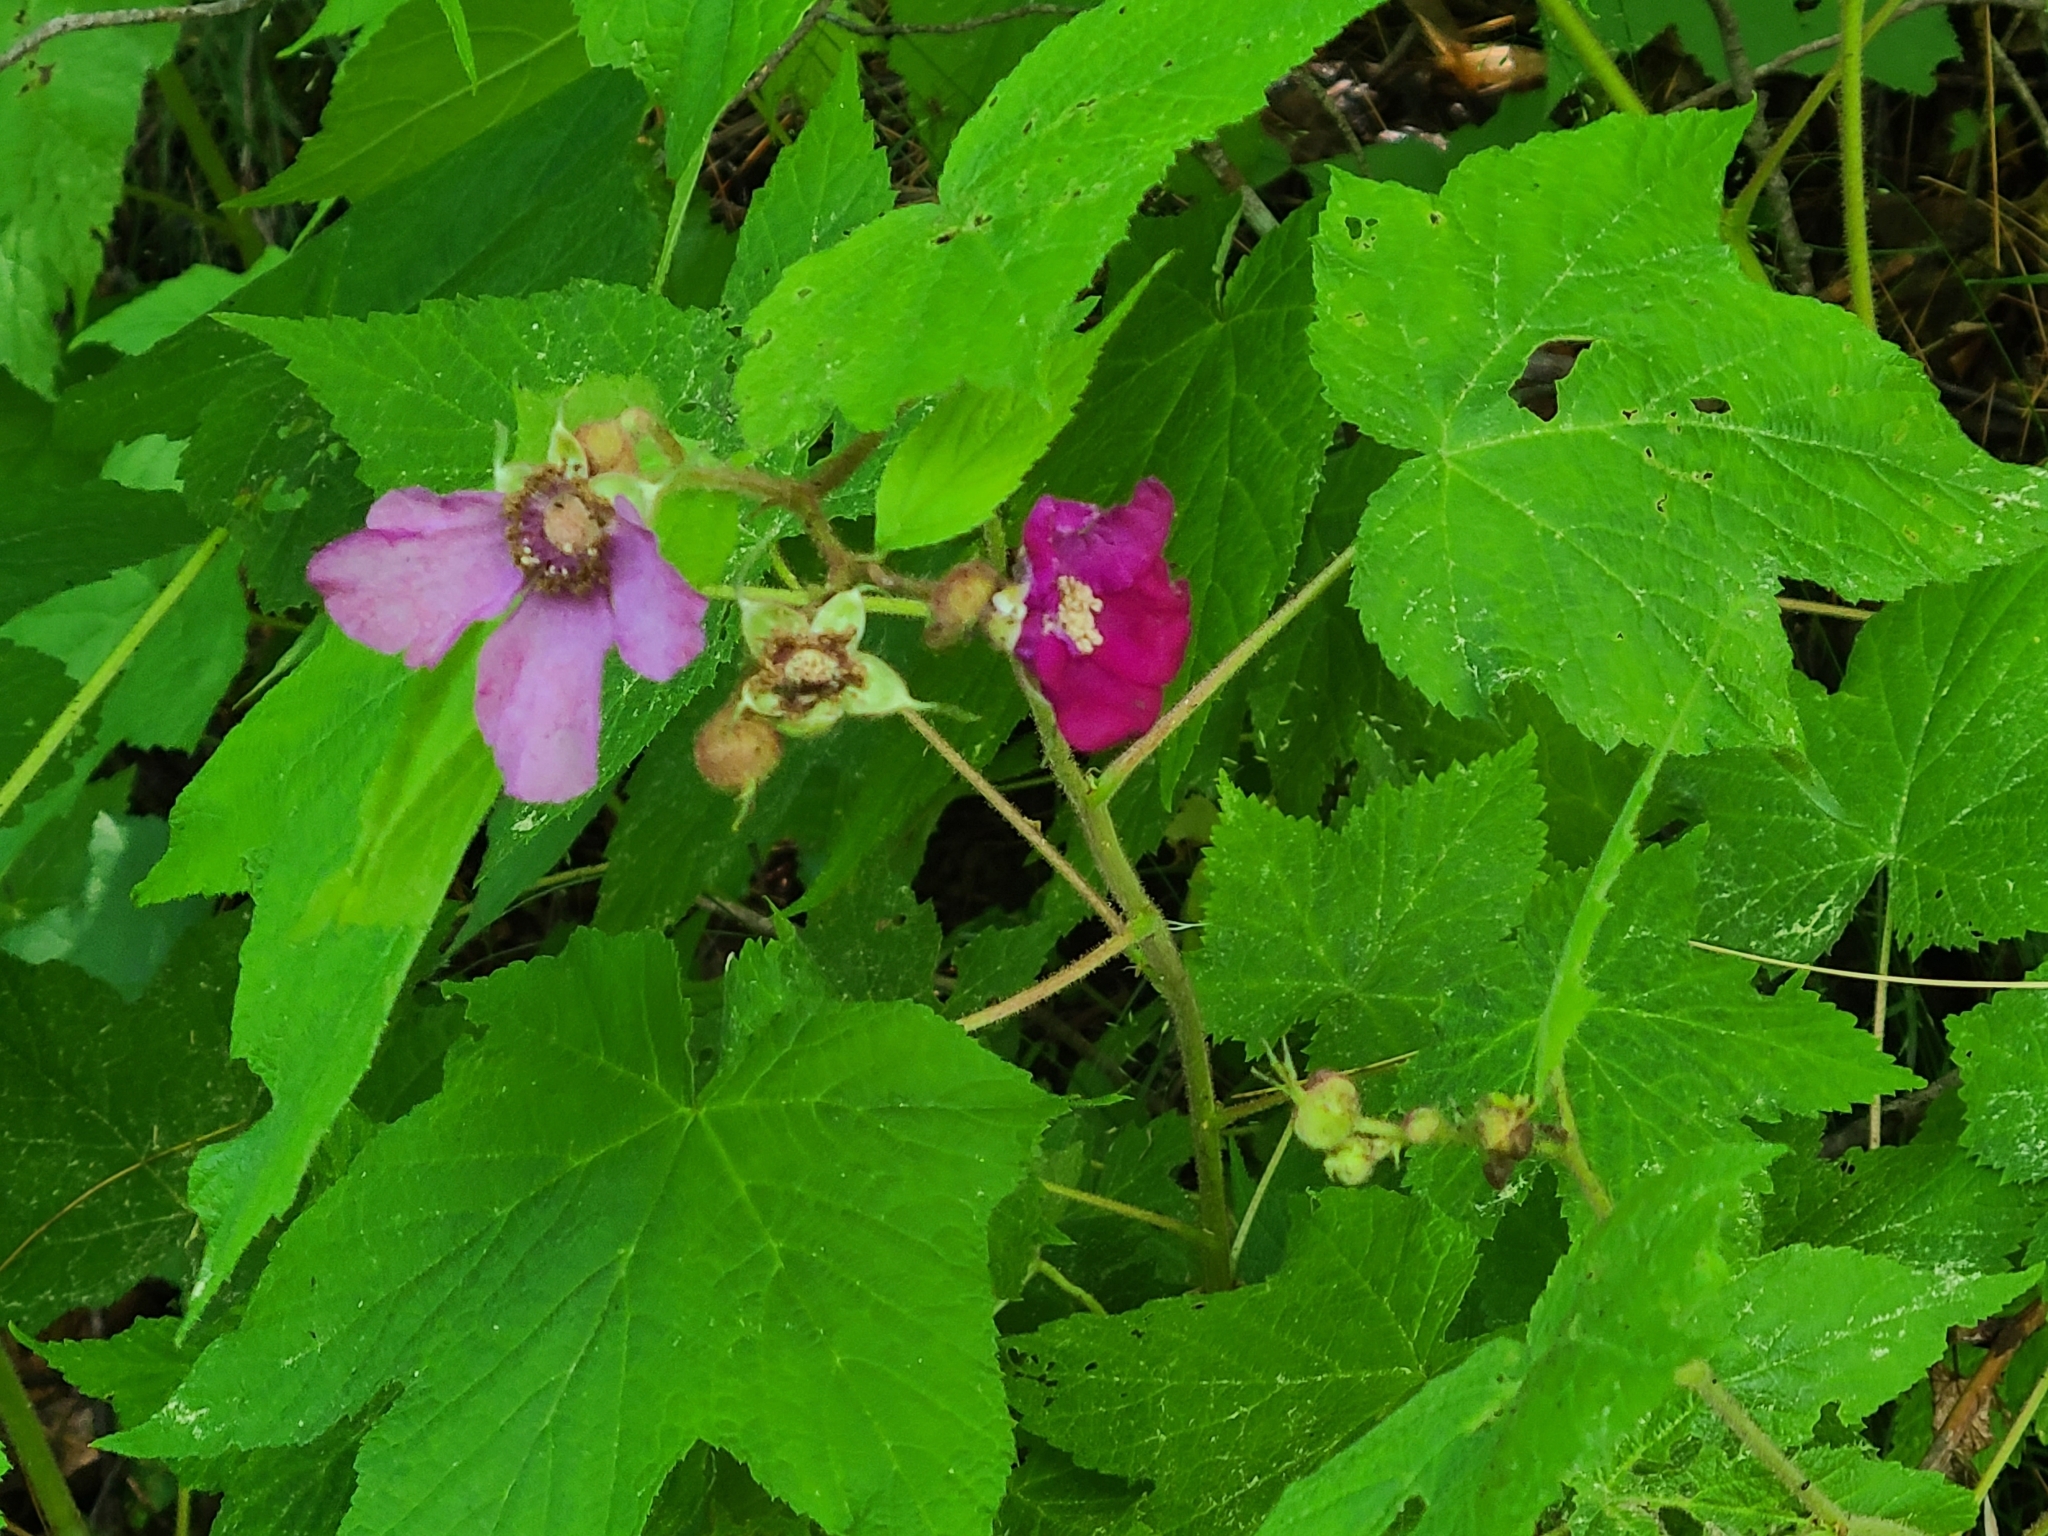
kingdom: Plantae
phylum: Tracheophyta
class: Magnoliopsida
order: Rosales
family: Rosaceae
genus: Rubus
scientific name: Rubus odoratus
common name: Purple-flowered raspberry
